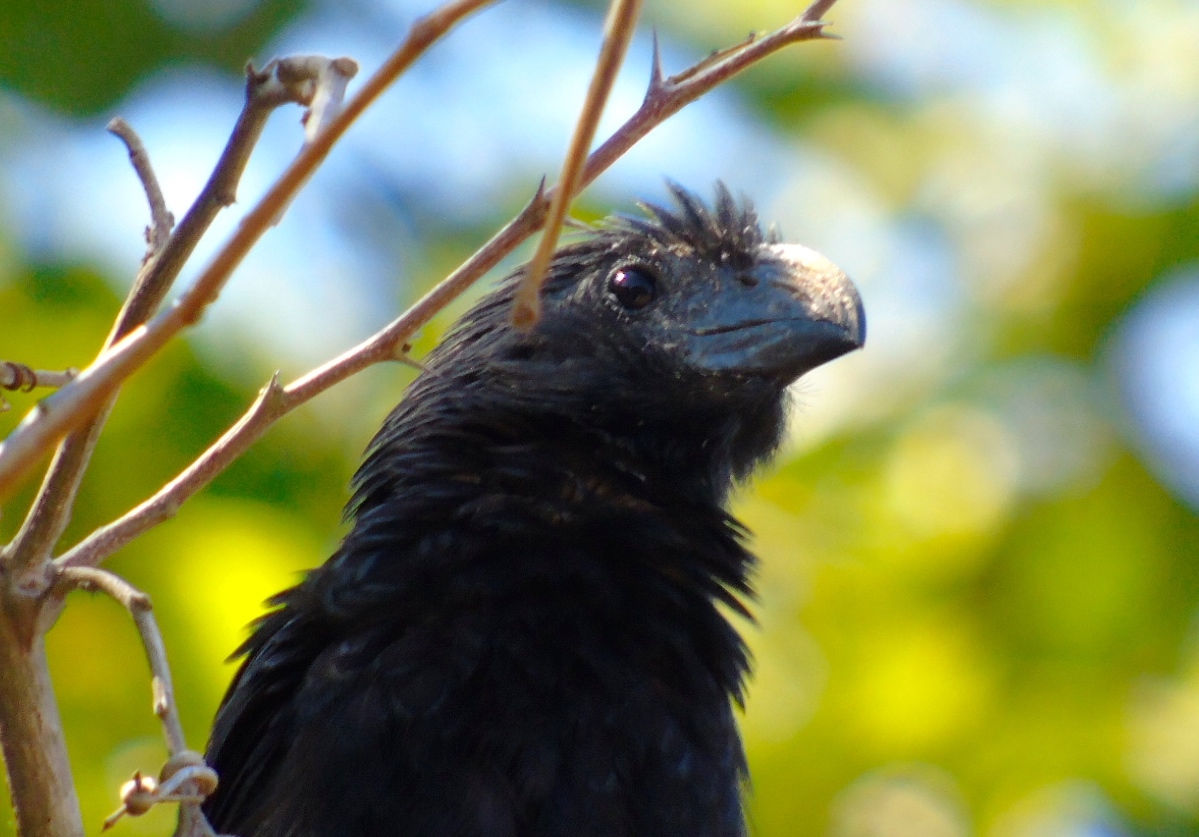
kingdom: Animalia
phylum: Chordata
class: Aves
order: Cuculiformes
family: Cuculidae
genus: Crotophaga
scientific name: Crotophaga sulcirostris
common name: Groove-billed ani
